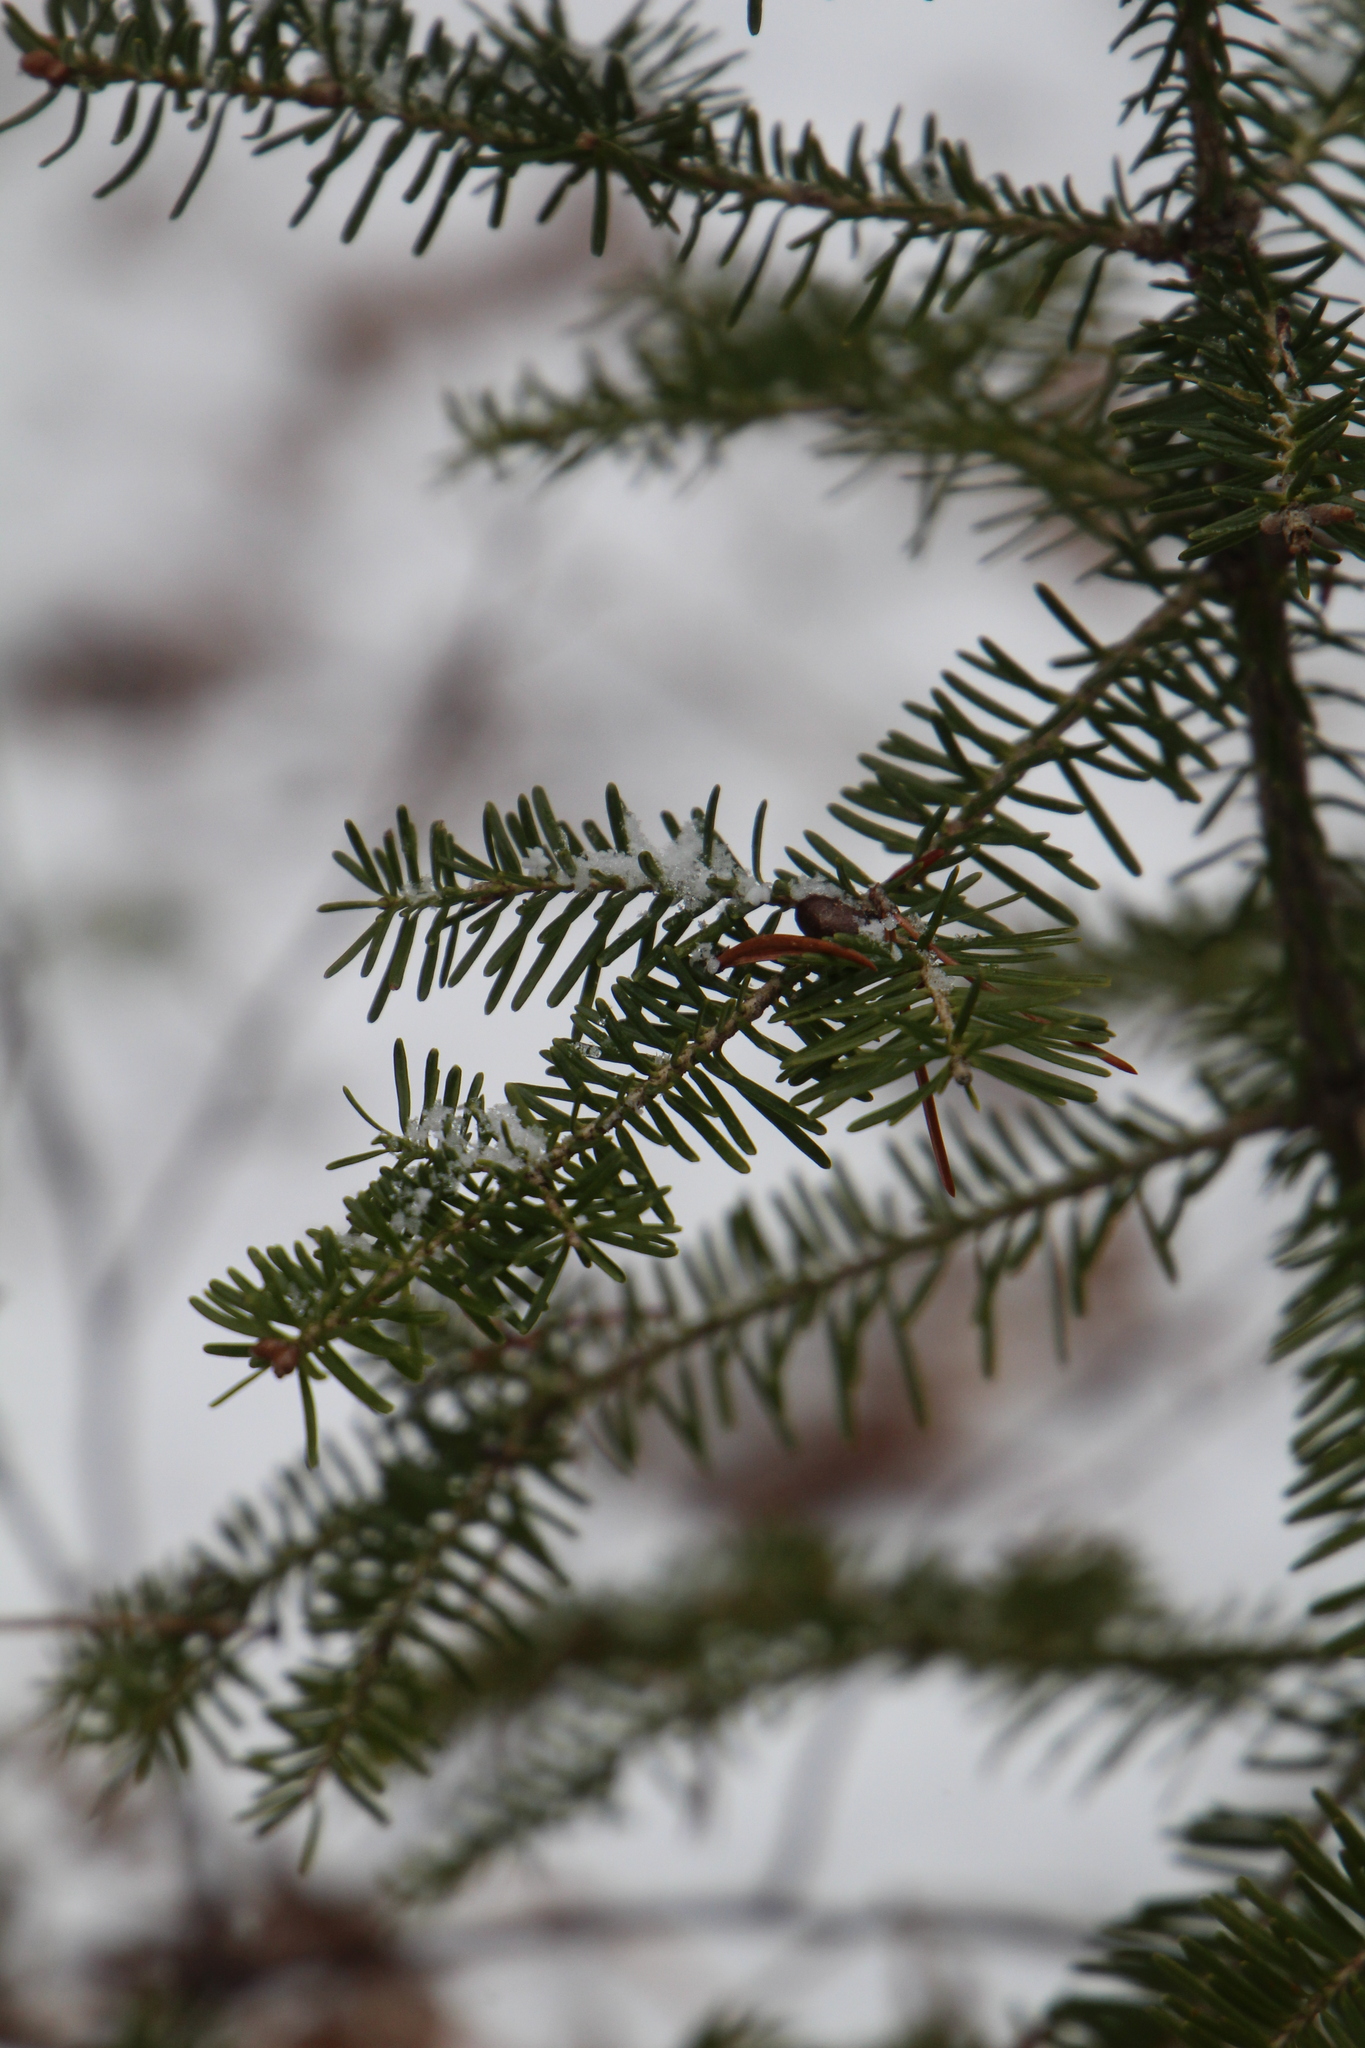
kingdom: Plantae
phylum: Tracheophyta
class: Pinopsida
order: Pinales
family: Pinaceae
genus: Abies
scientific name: Abies balsamea
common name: Balsam fir
